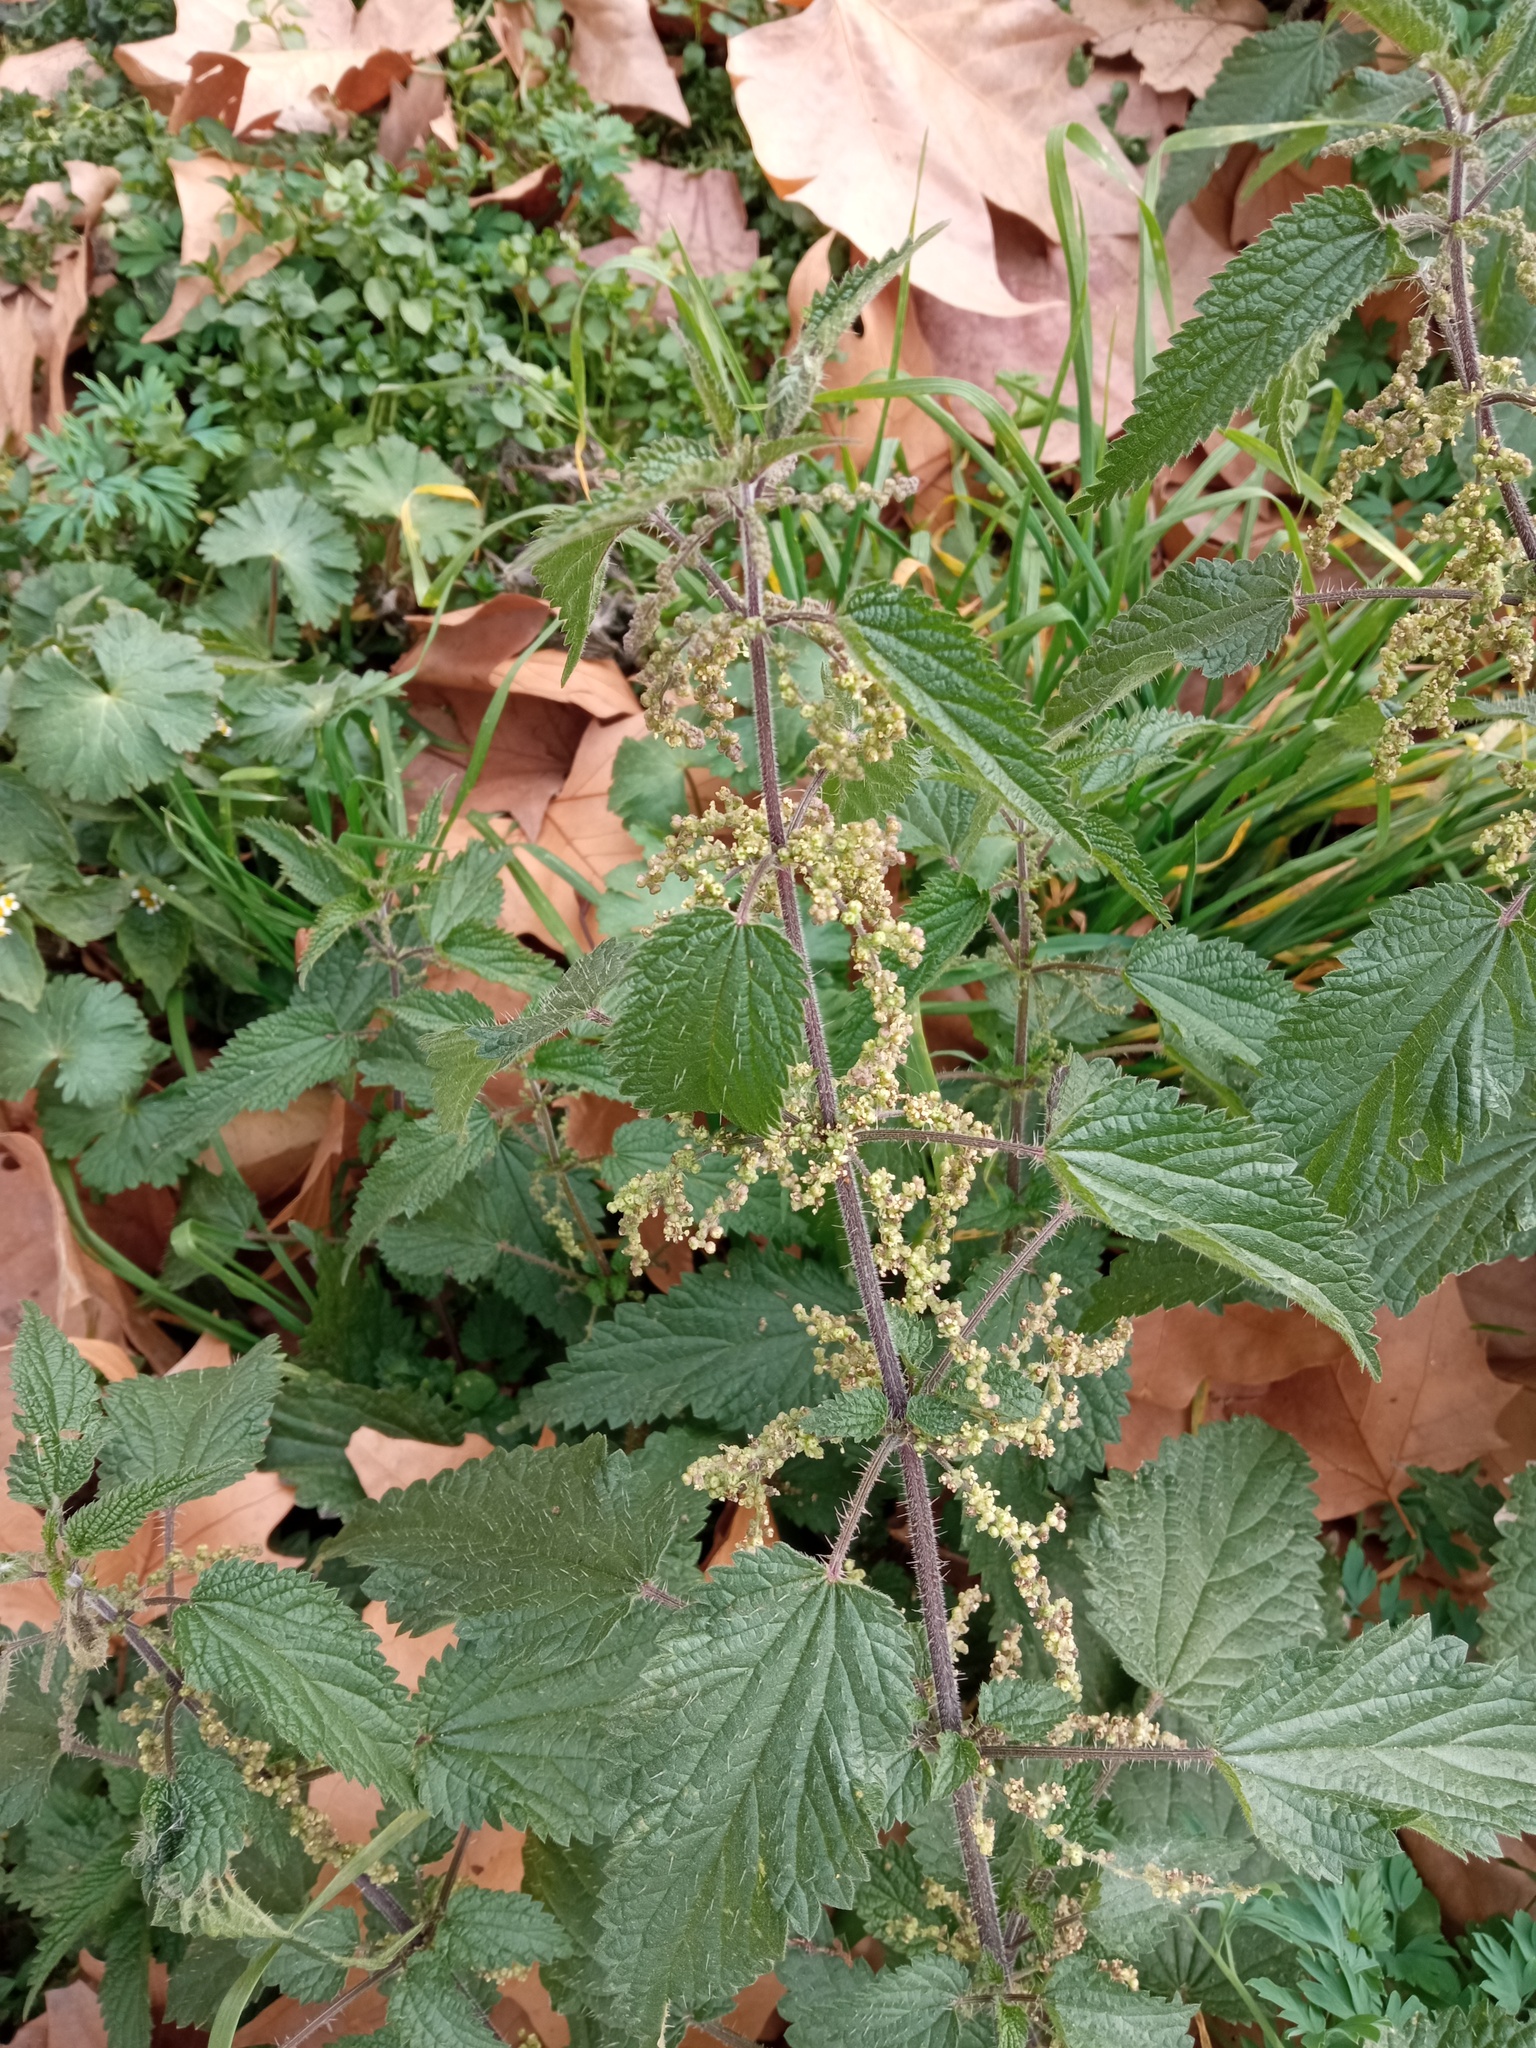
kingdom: Plantae
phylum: Tracheophyta
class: Magnoliopsida
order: Rosales
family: Urticaceae
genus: Urtica
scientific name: Urtica dioica
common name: Common nettle
